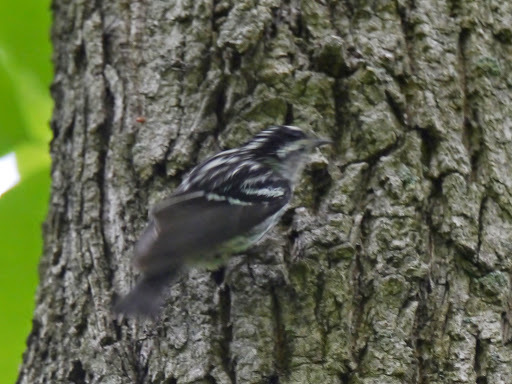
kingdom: Animalia
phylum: Chordata
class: Aves
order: Passeriformes
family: Parulidae
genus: Mniotilta
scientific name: Mniotilta varia
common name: Black-and-white warbler
